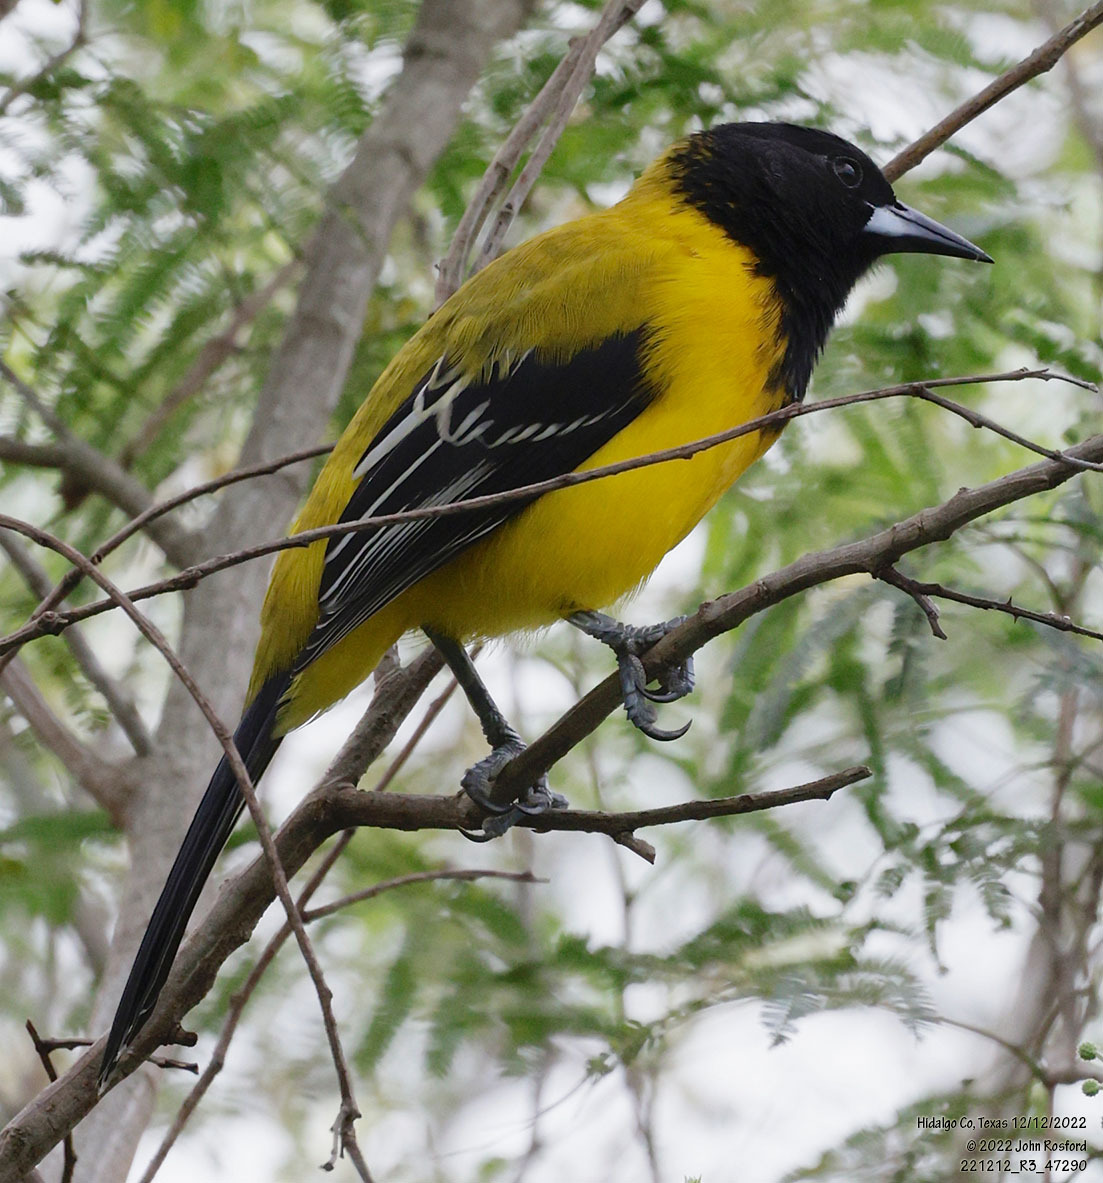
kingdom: Animalia
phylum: Chordata
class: Aves
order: Passeriformes
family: Icteridae
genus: Icterus
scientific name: Icterus graduacauda
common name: Audubon's oriole
